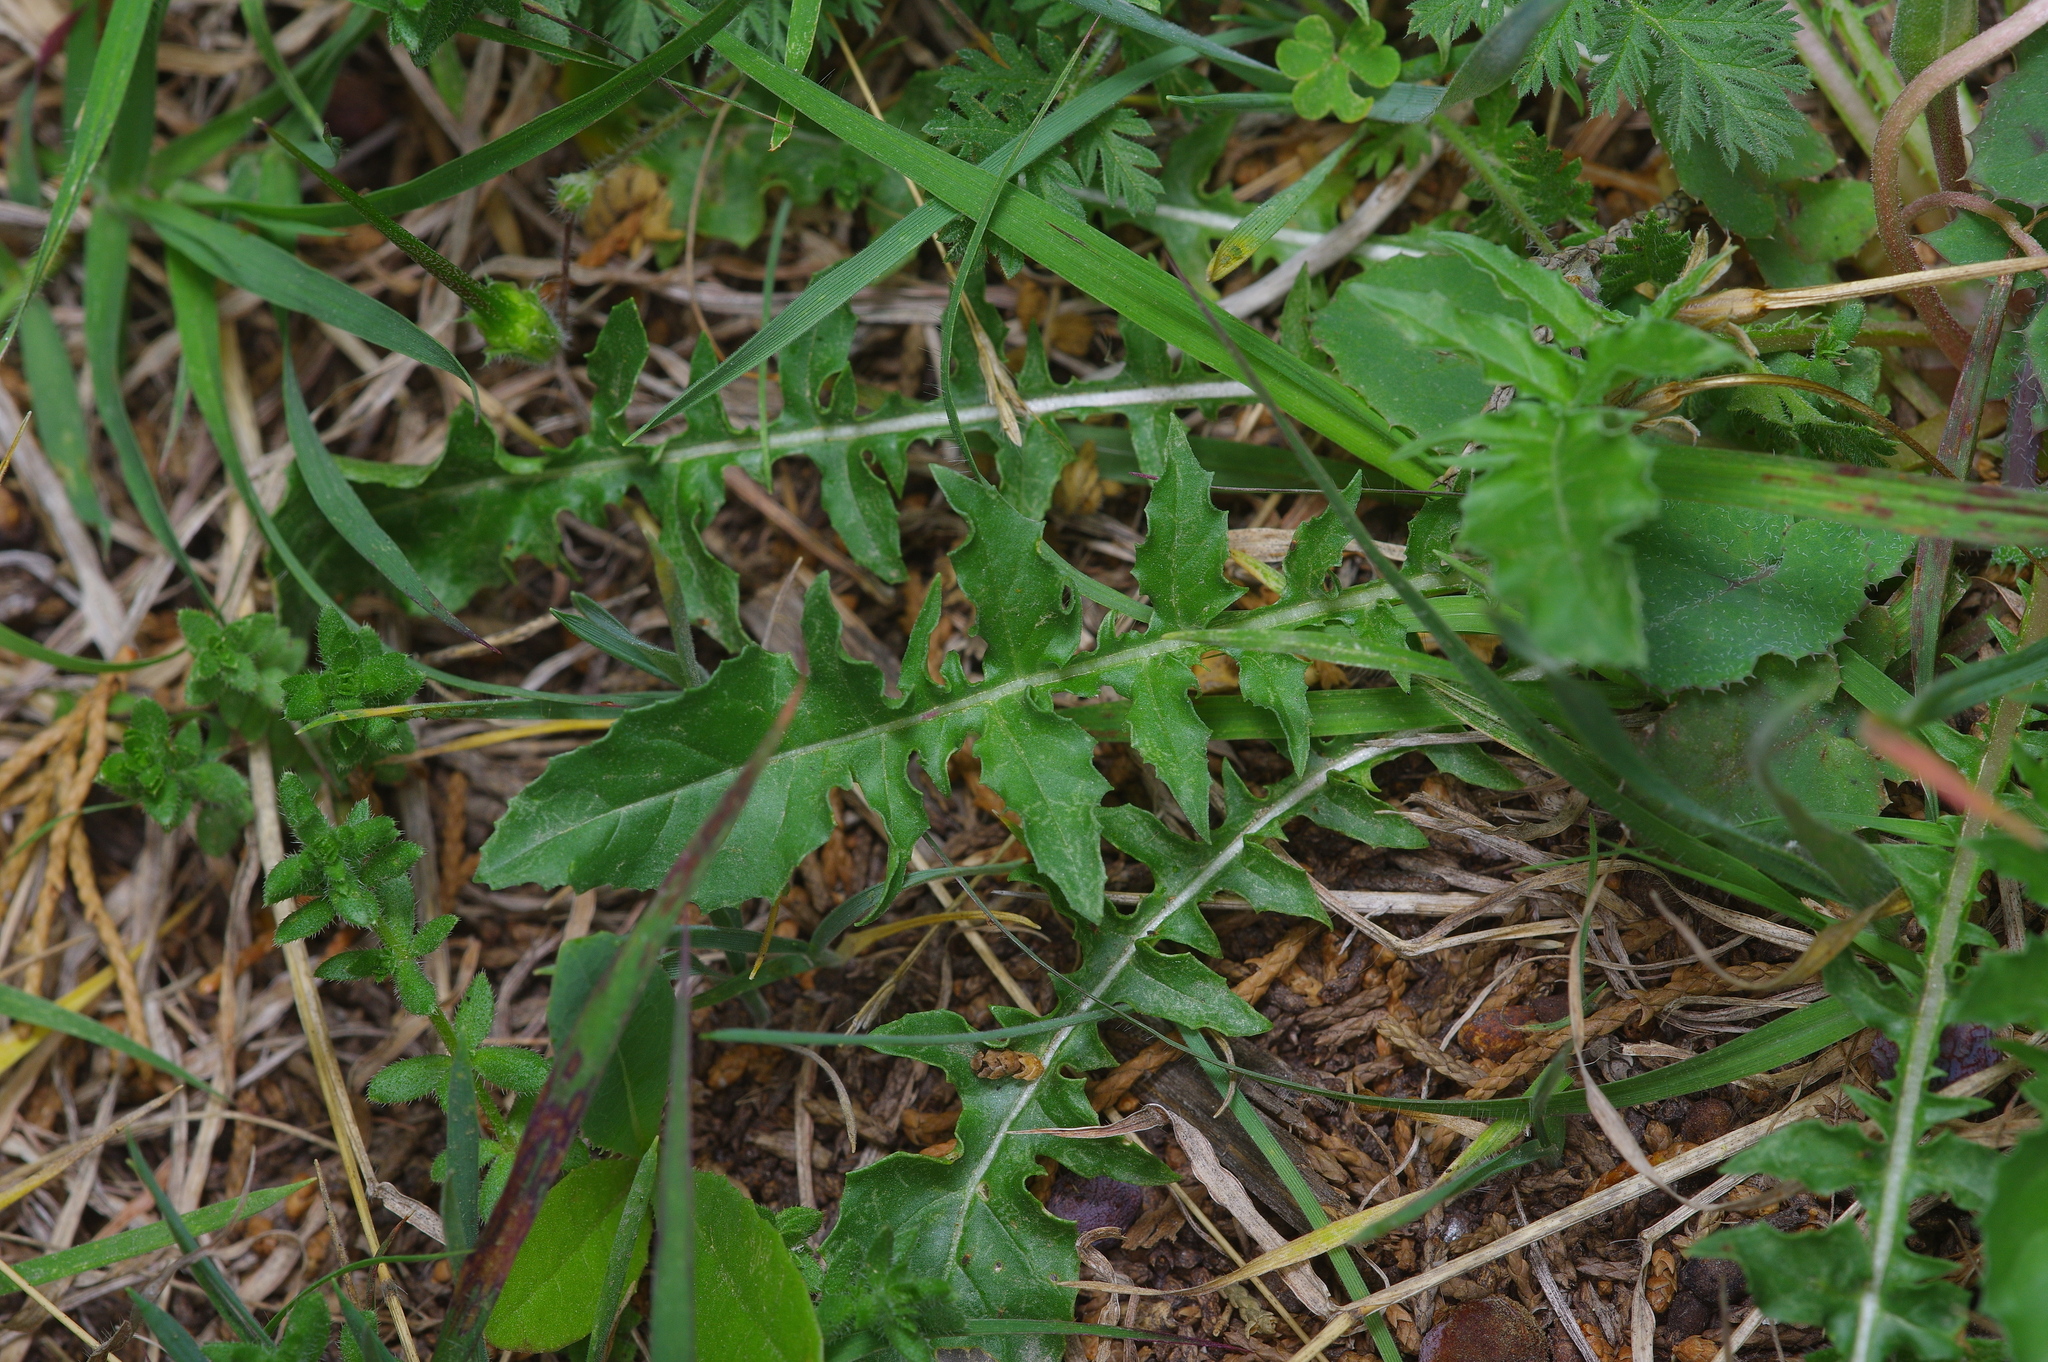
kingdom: Plantae
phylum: Tracheophyta
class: Magnoliopsida
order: Myrtales
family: Onagraceae
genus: Oenothera
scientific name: Oenothera triloba
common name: Sessile evening-primrose
